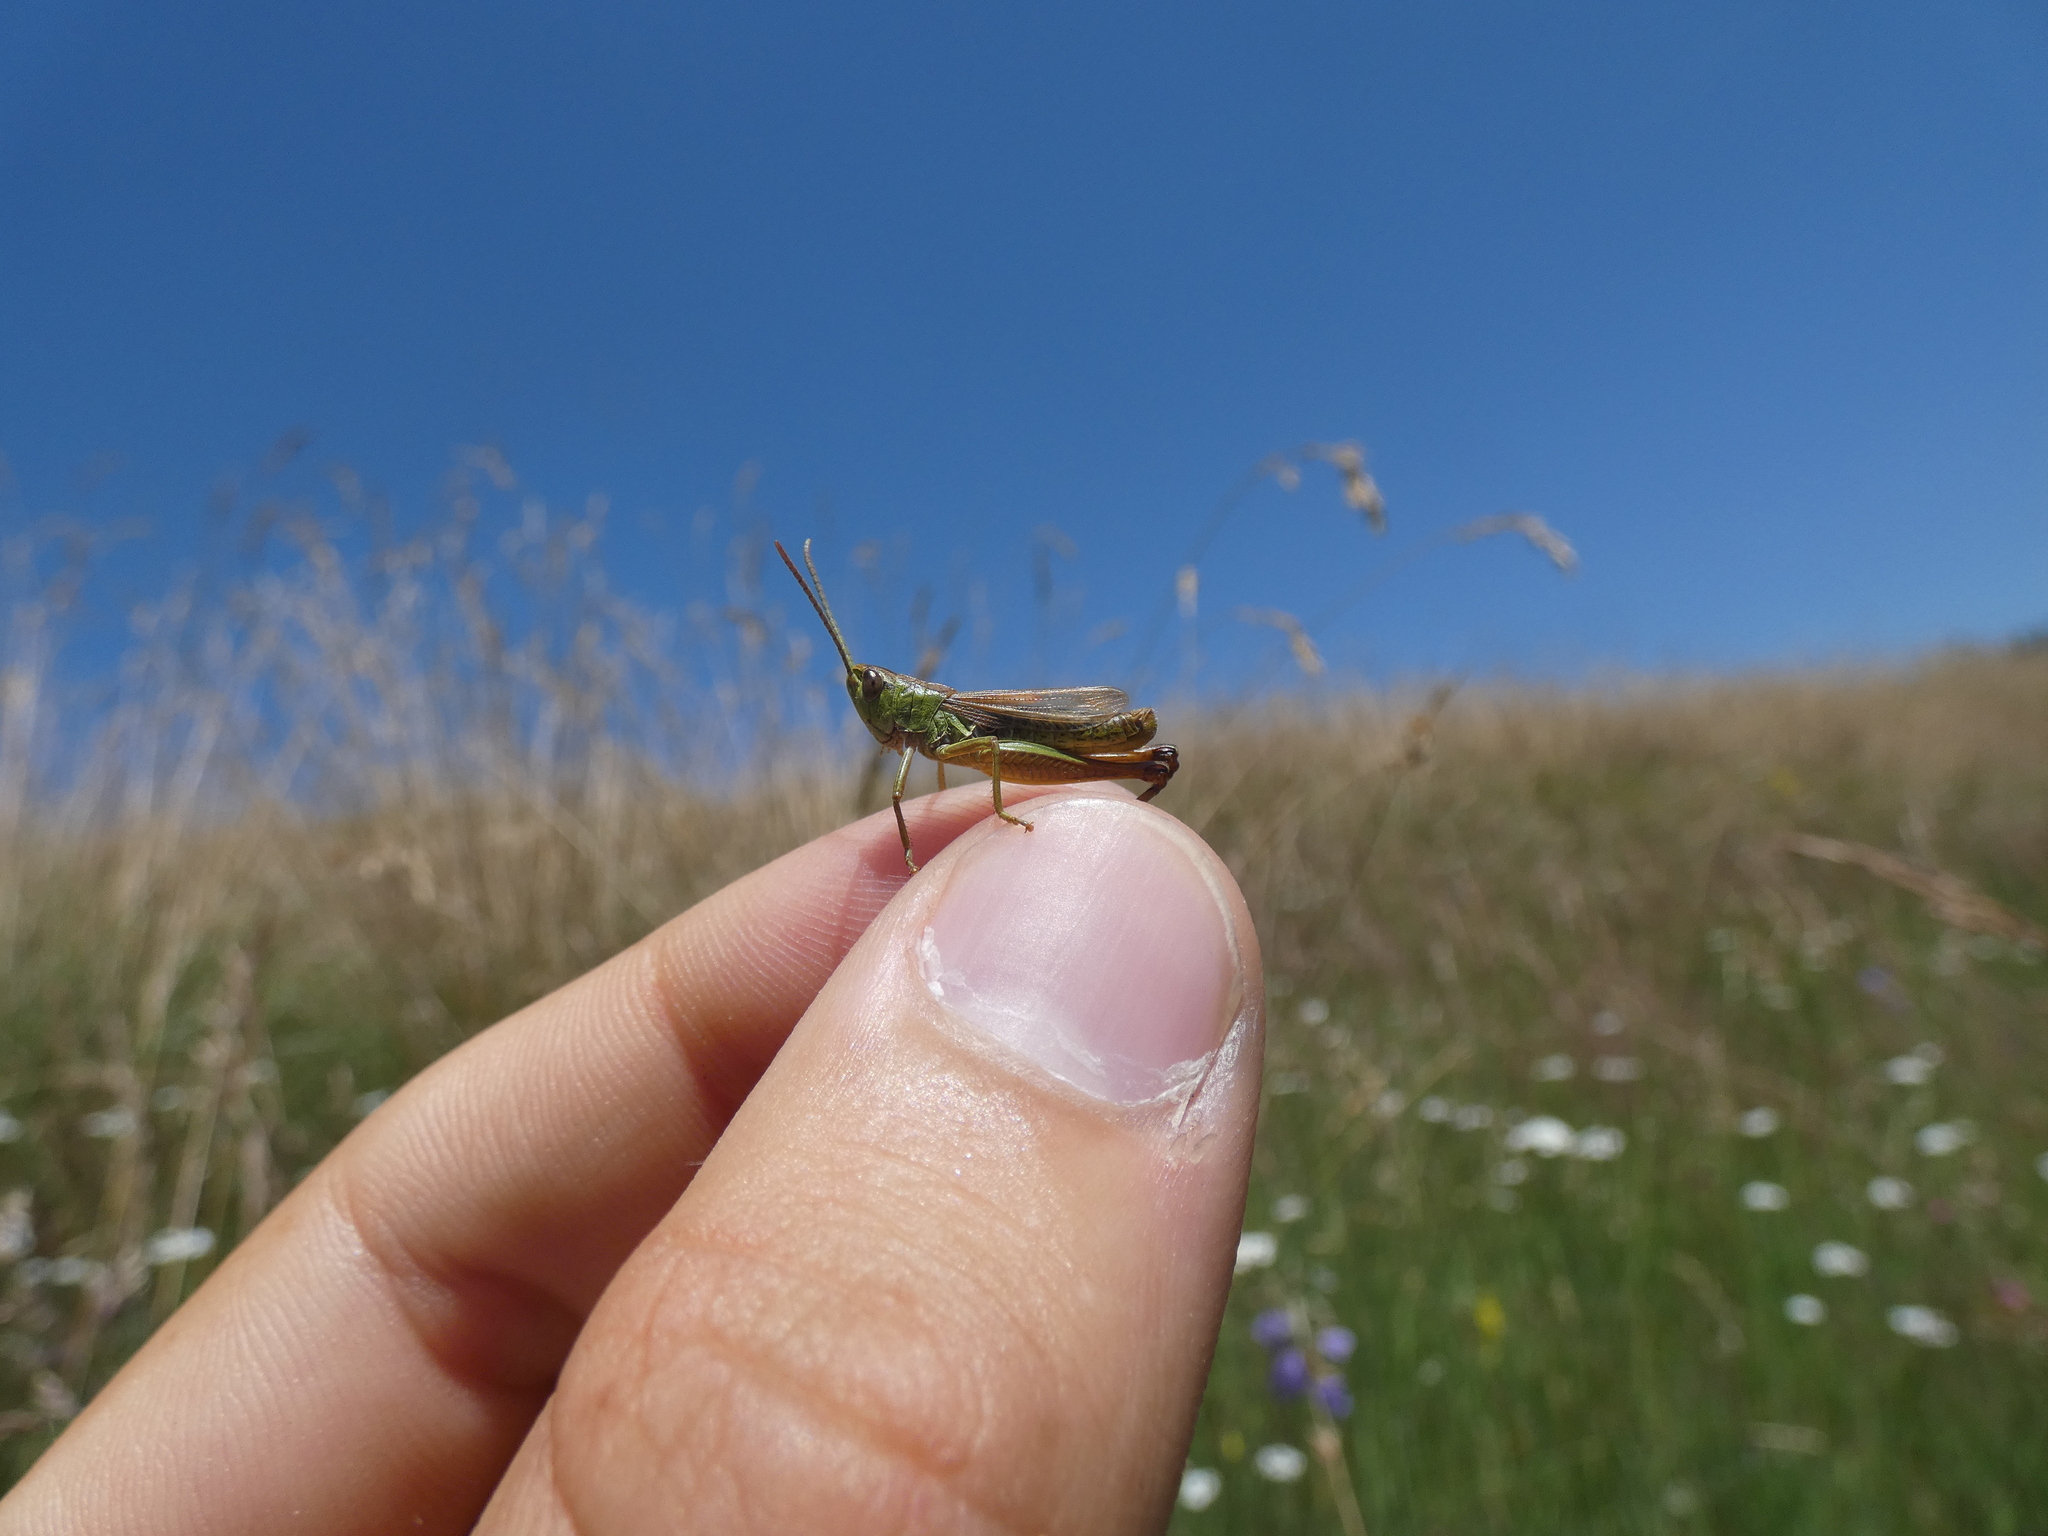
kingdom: Animalia
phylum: Arthropoda
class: Insecta
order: Orthoptera
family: Acrididae
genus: Pseudochorthippus
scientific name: Pseudochorthippus parallelus
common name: Meadow grasshopper
